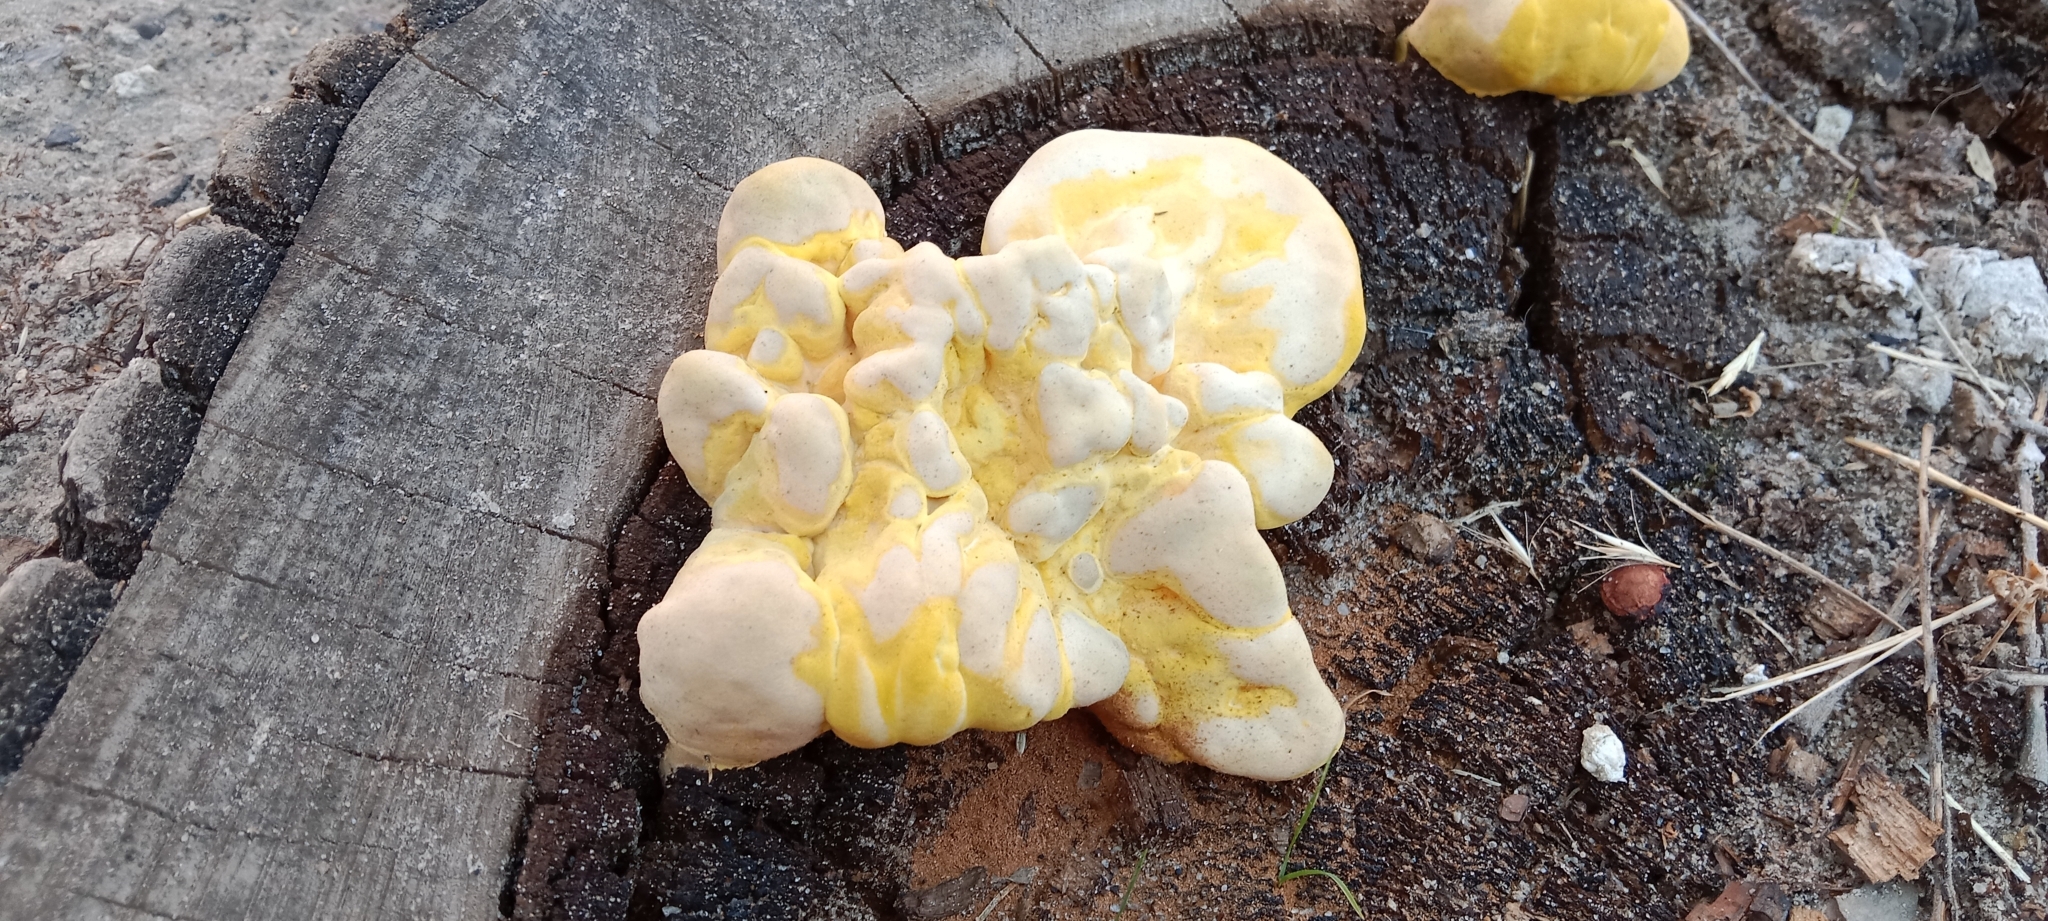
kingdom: Fungi
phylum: Basidiomycota
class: Agaricomycetes
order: Polyporales
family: Laetiporaceae
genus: Laetiporus
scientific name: Laetiporus sulphureus
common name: Chicken of the woods
